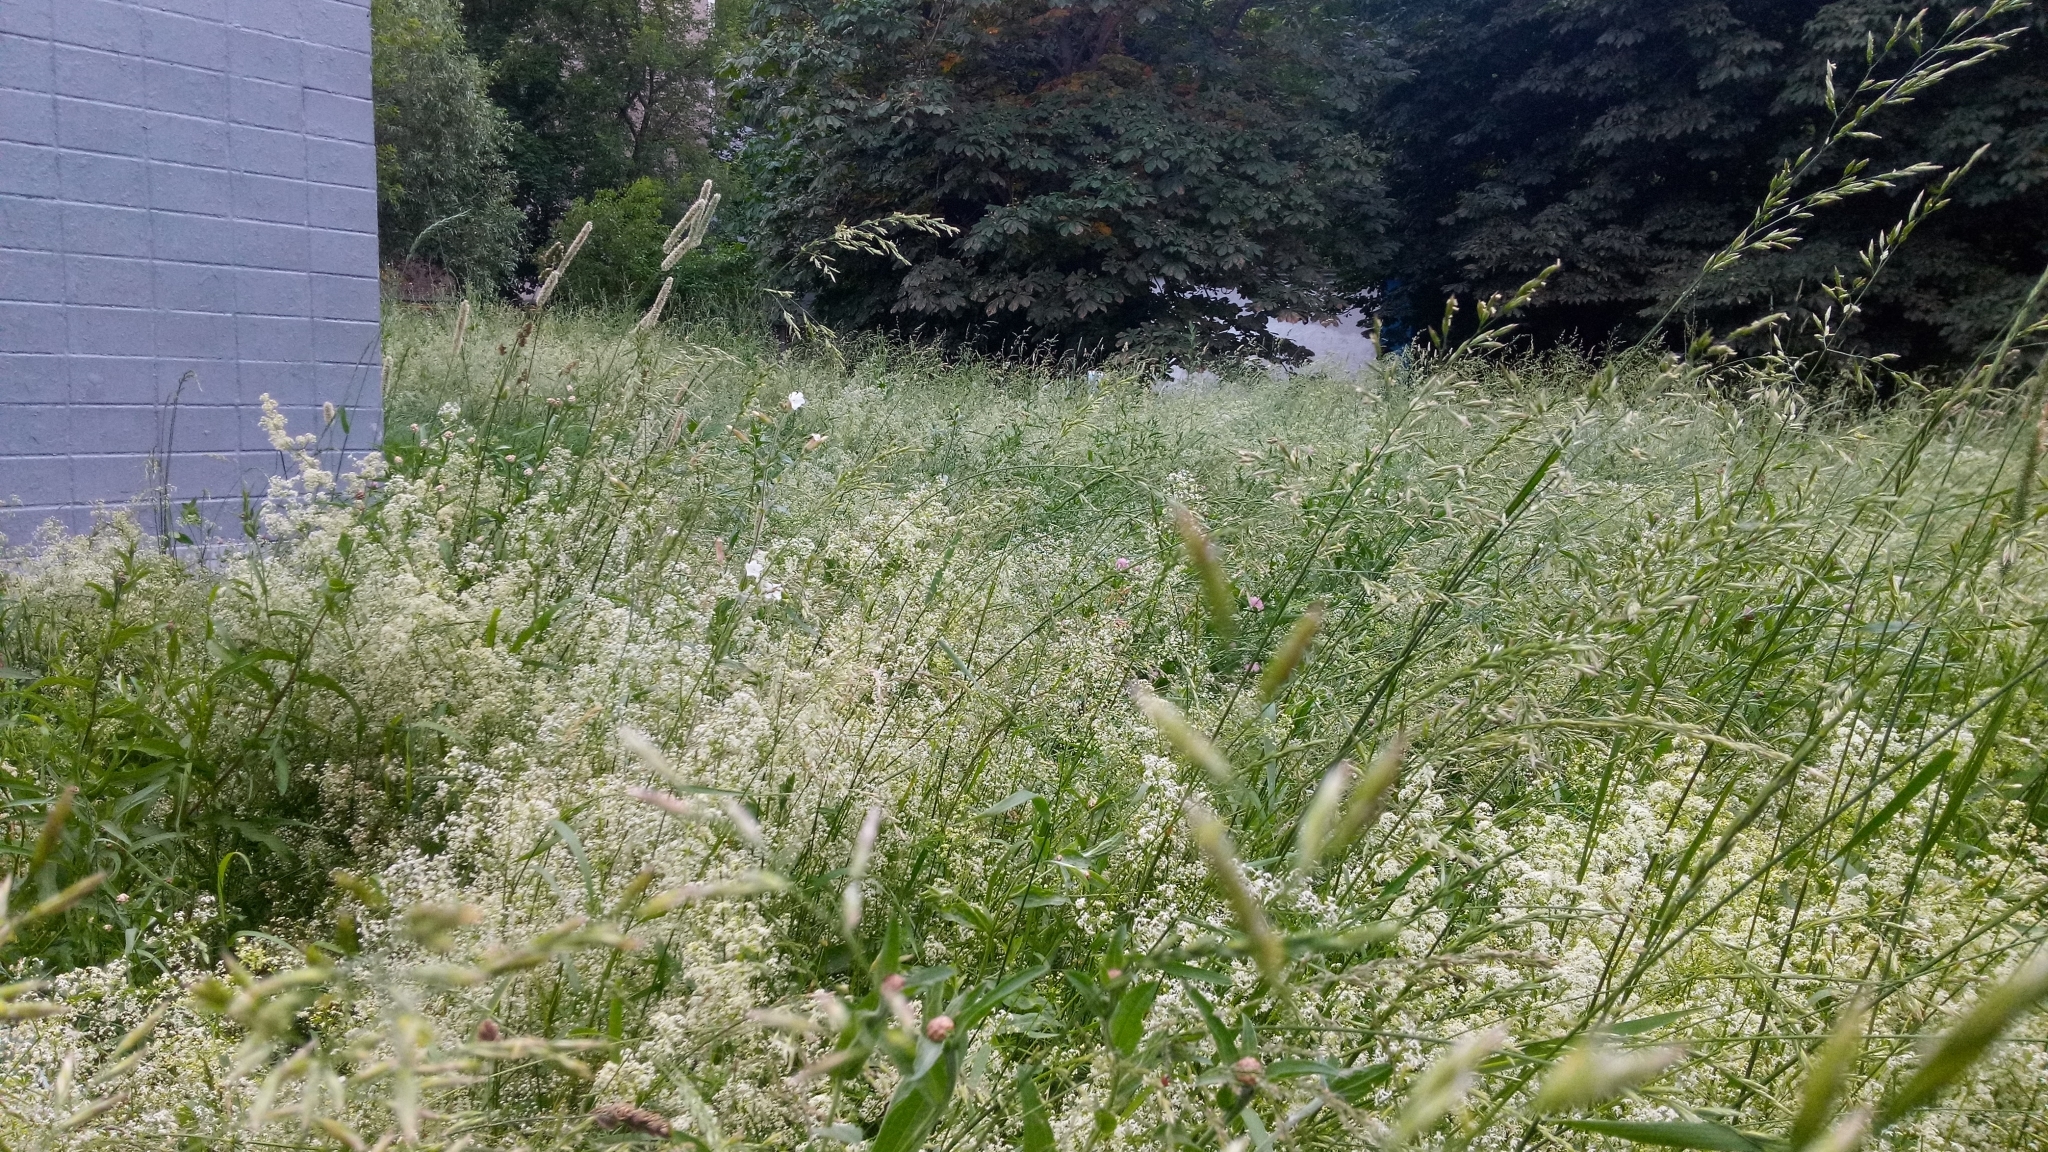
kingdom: Plantae
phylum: Tracheophyta
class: Magnoliopsida
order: Gentianales
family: Rubiaceae
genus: Galium
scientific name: Galium mollugo
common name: Hedge bedstraw
